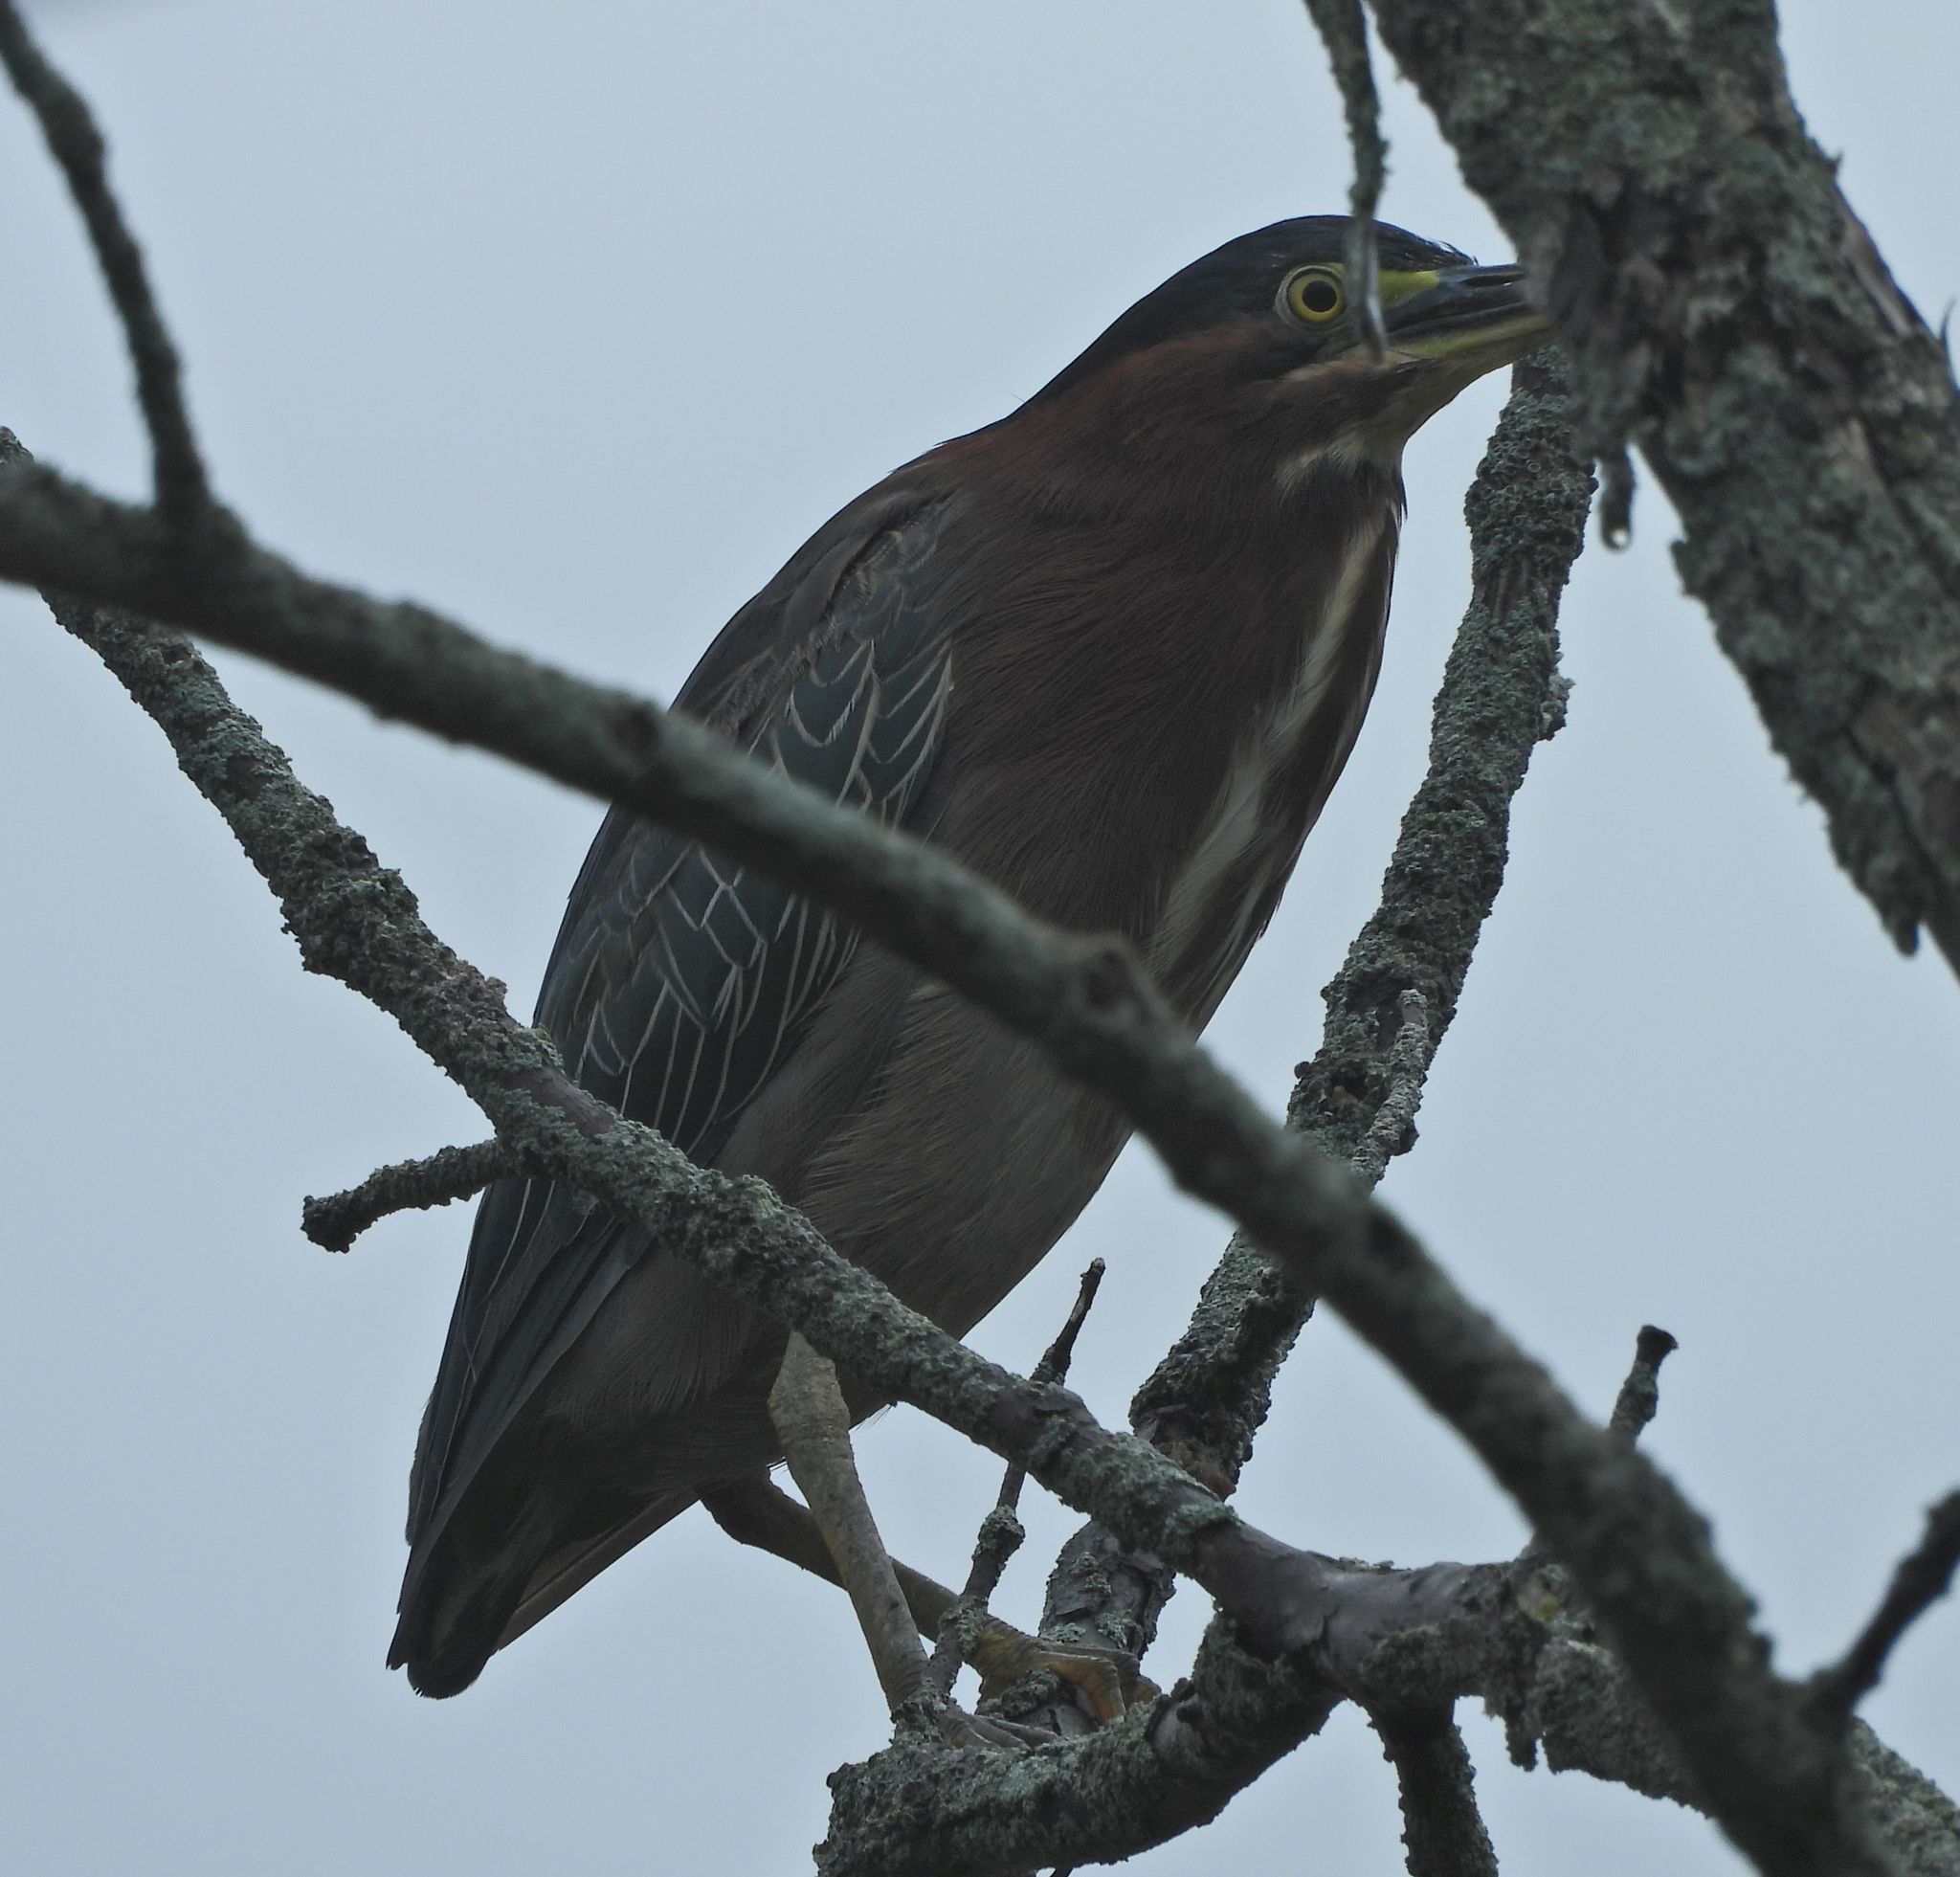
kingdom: Animalia
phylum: Chordata
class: Aves
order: Pelecaniformes
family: Ardeidae
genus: Butorides
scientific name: Butorides virescens
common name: Green heron
